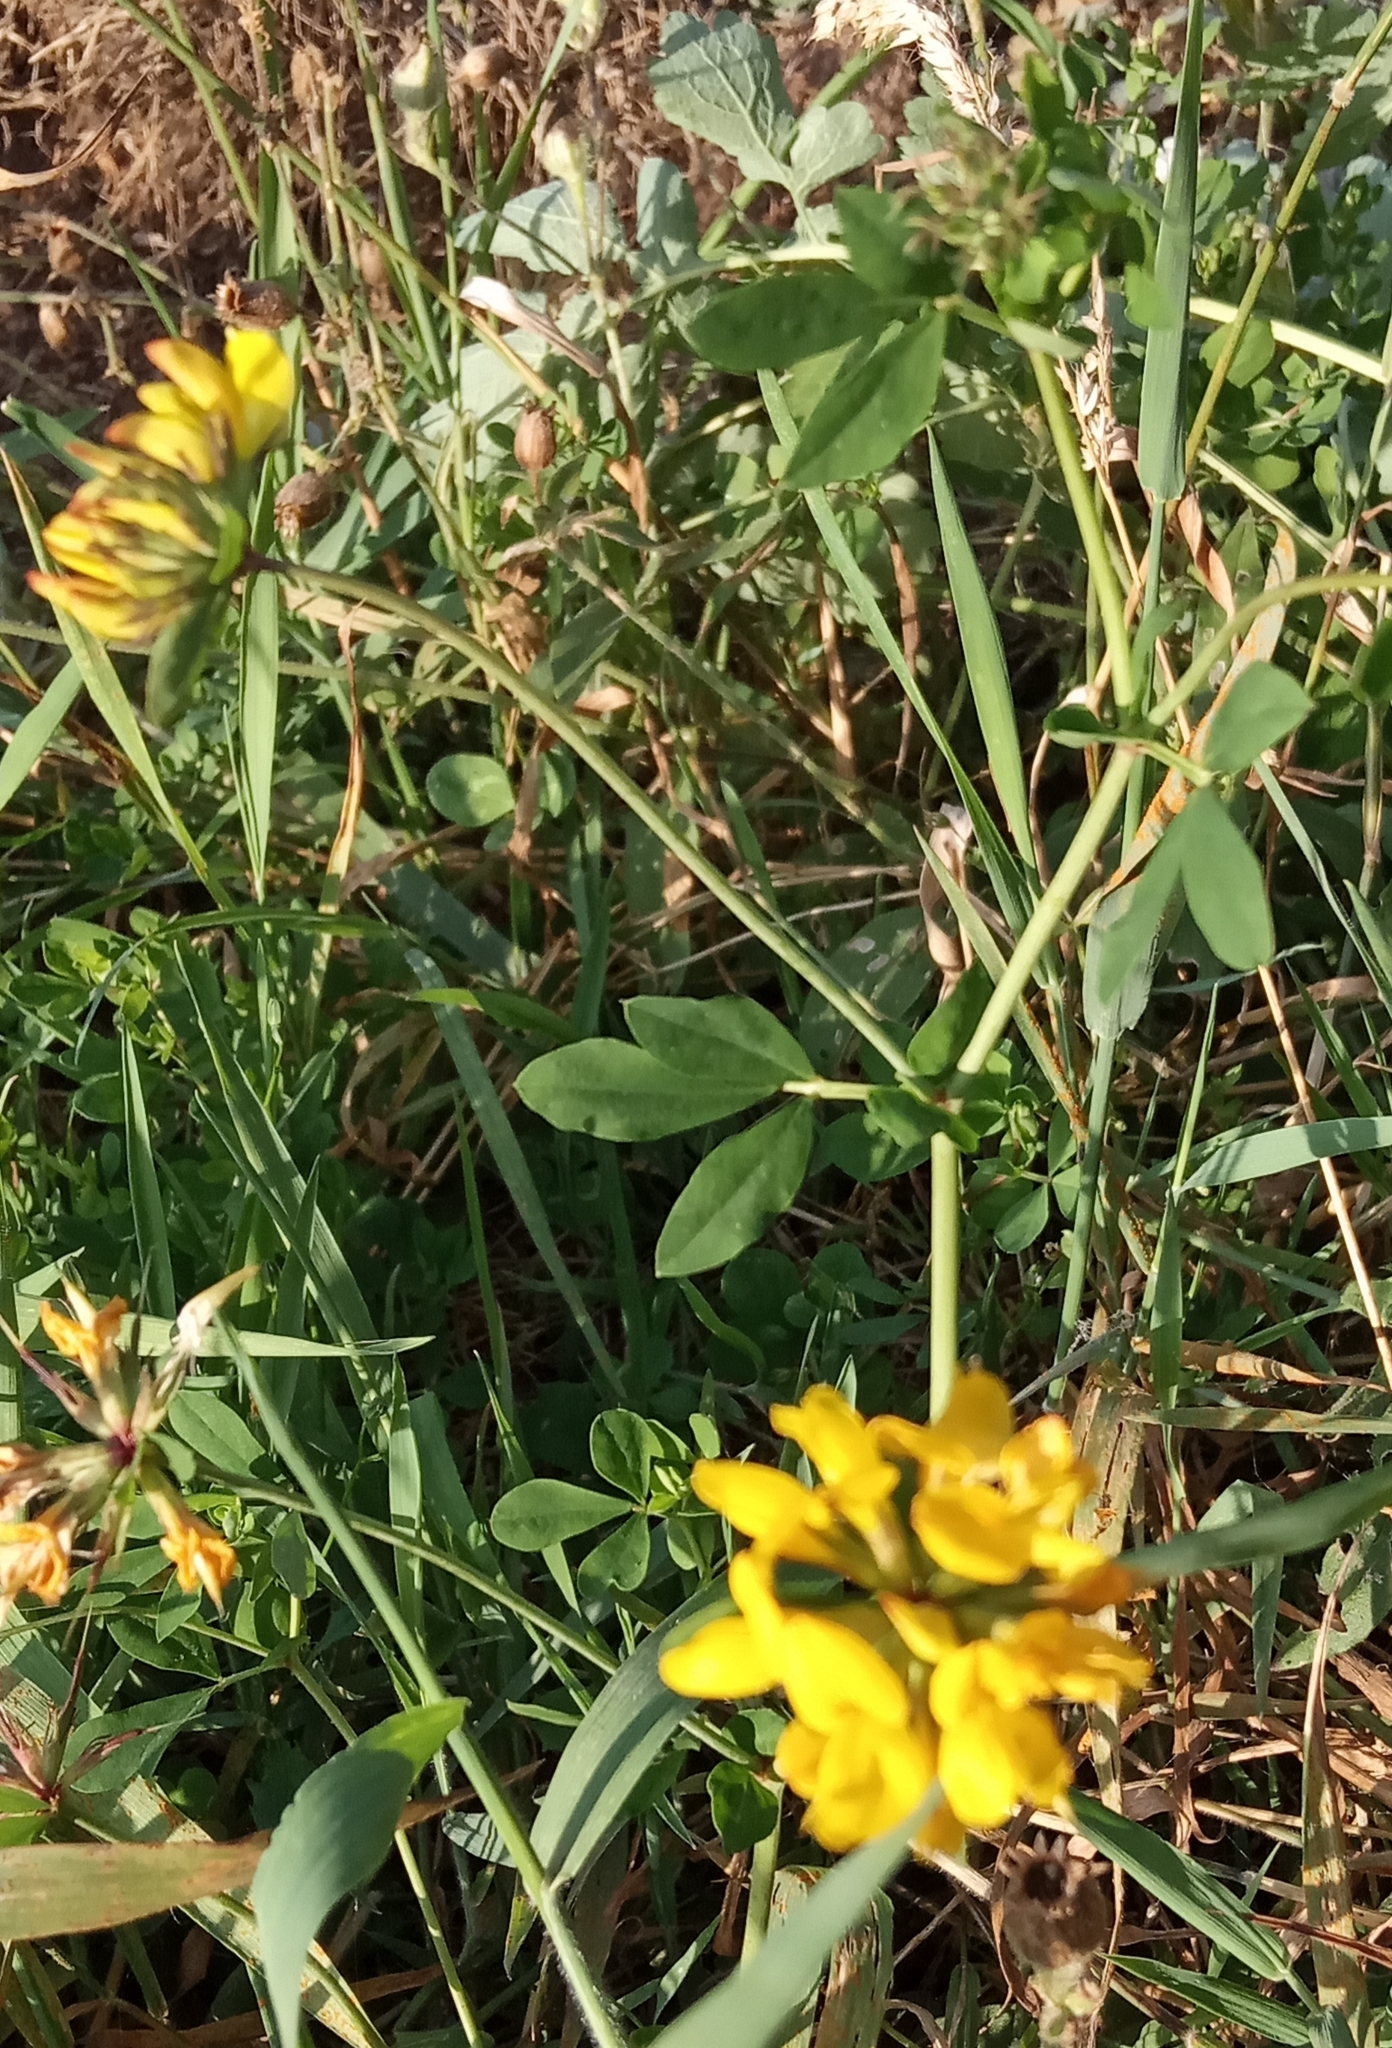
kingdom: Plantae
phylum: Tracheophyta
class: Magnoliopsida
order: Fabales
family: Fabaceae
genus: Lotus
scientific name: Lotus pedunculatus
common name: Greater birdsfoot-trefoil
